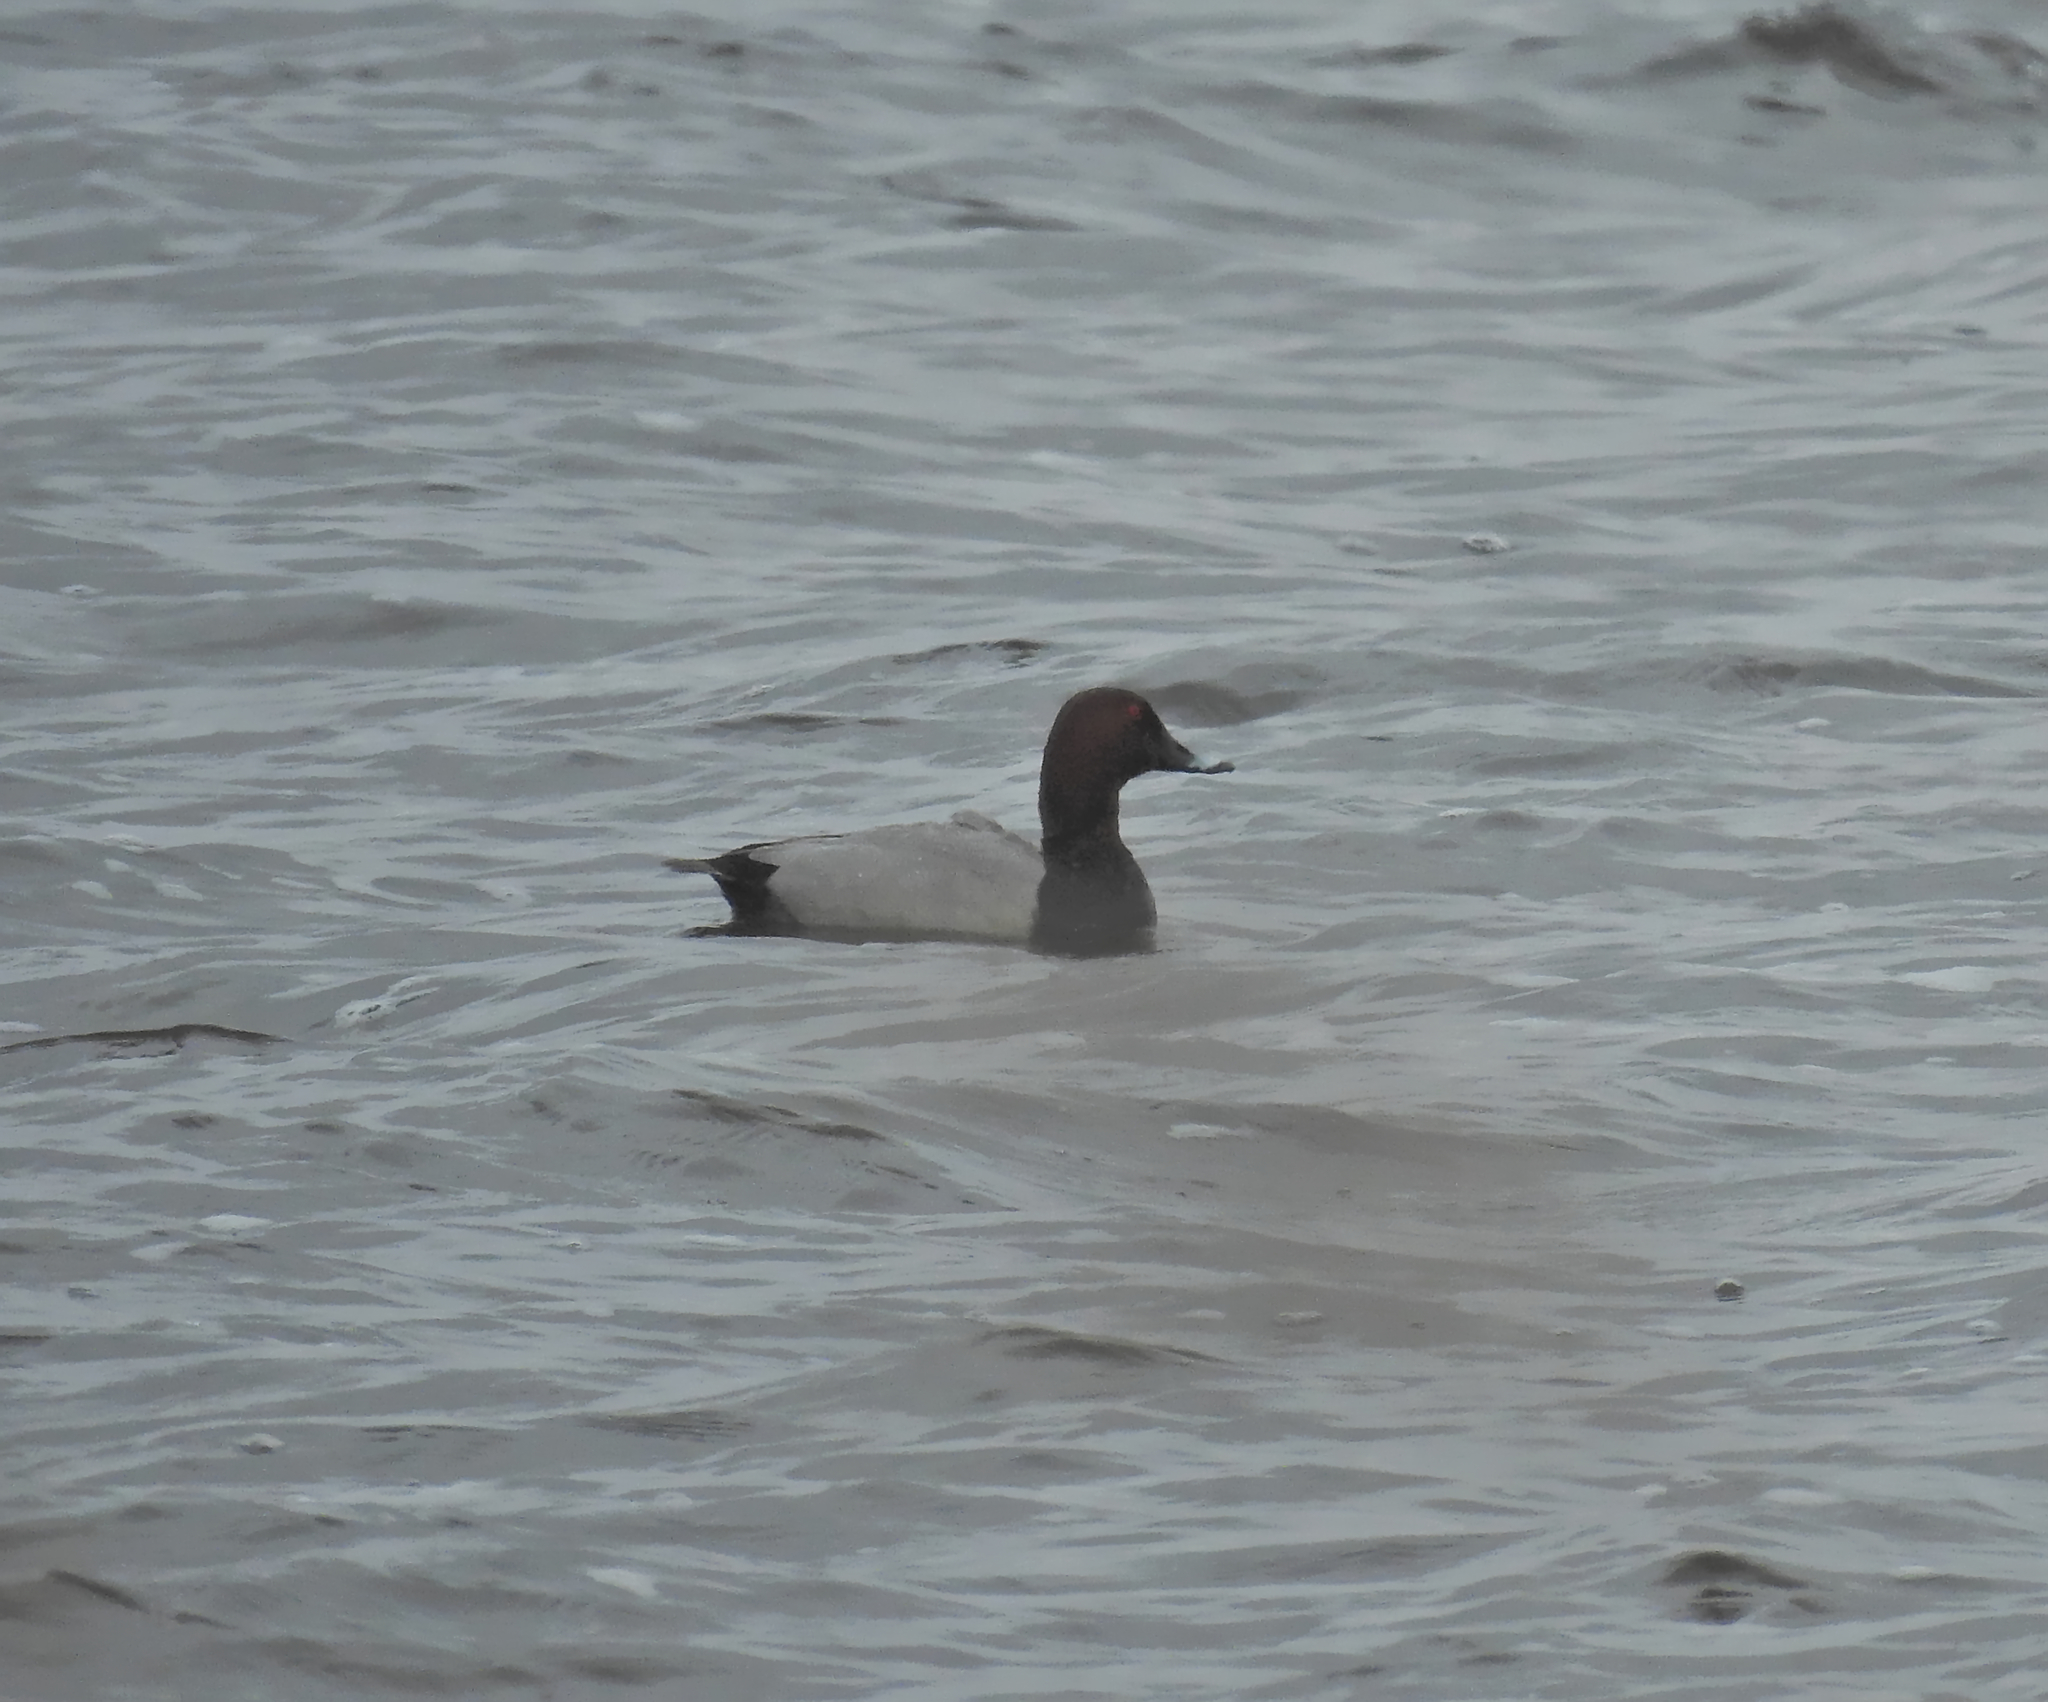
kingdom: Animalia
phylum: Chordata
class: Aves
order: Anseriformes
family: Anatidae
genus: Aythya
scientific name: Aythya ferina
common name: Common pochard
